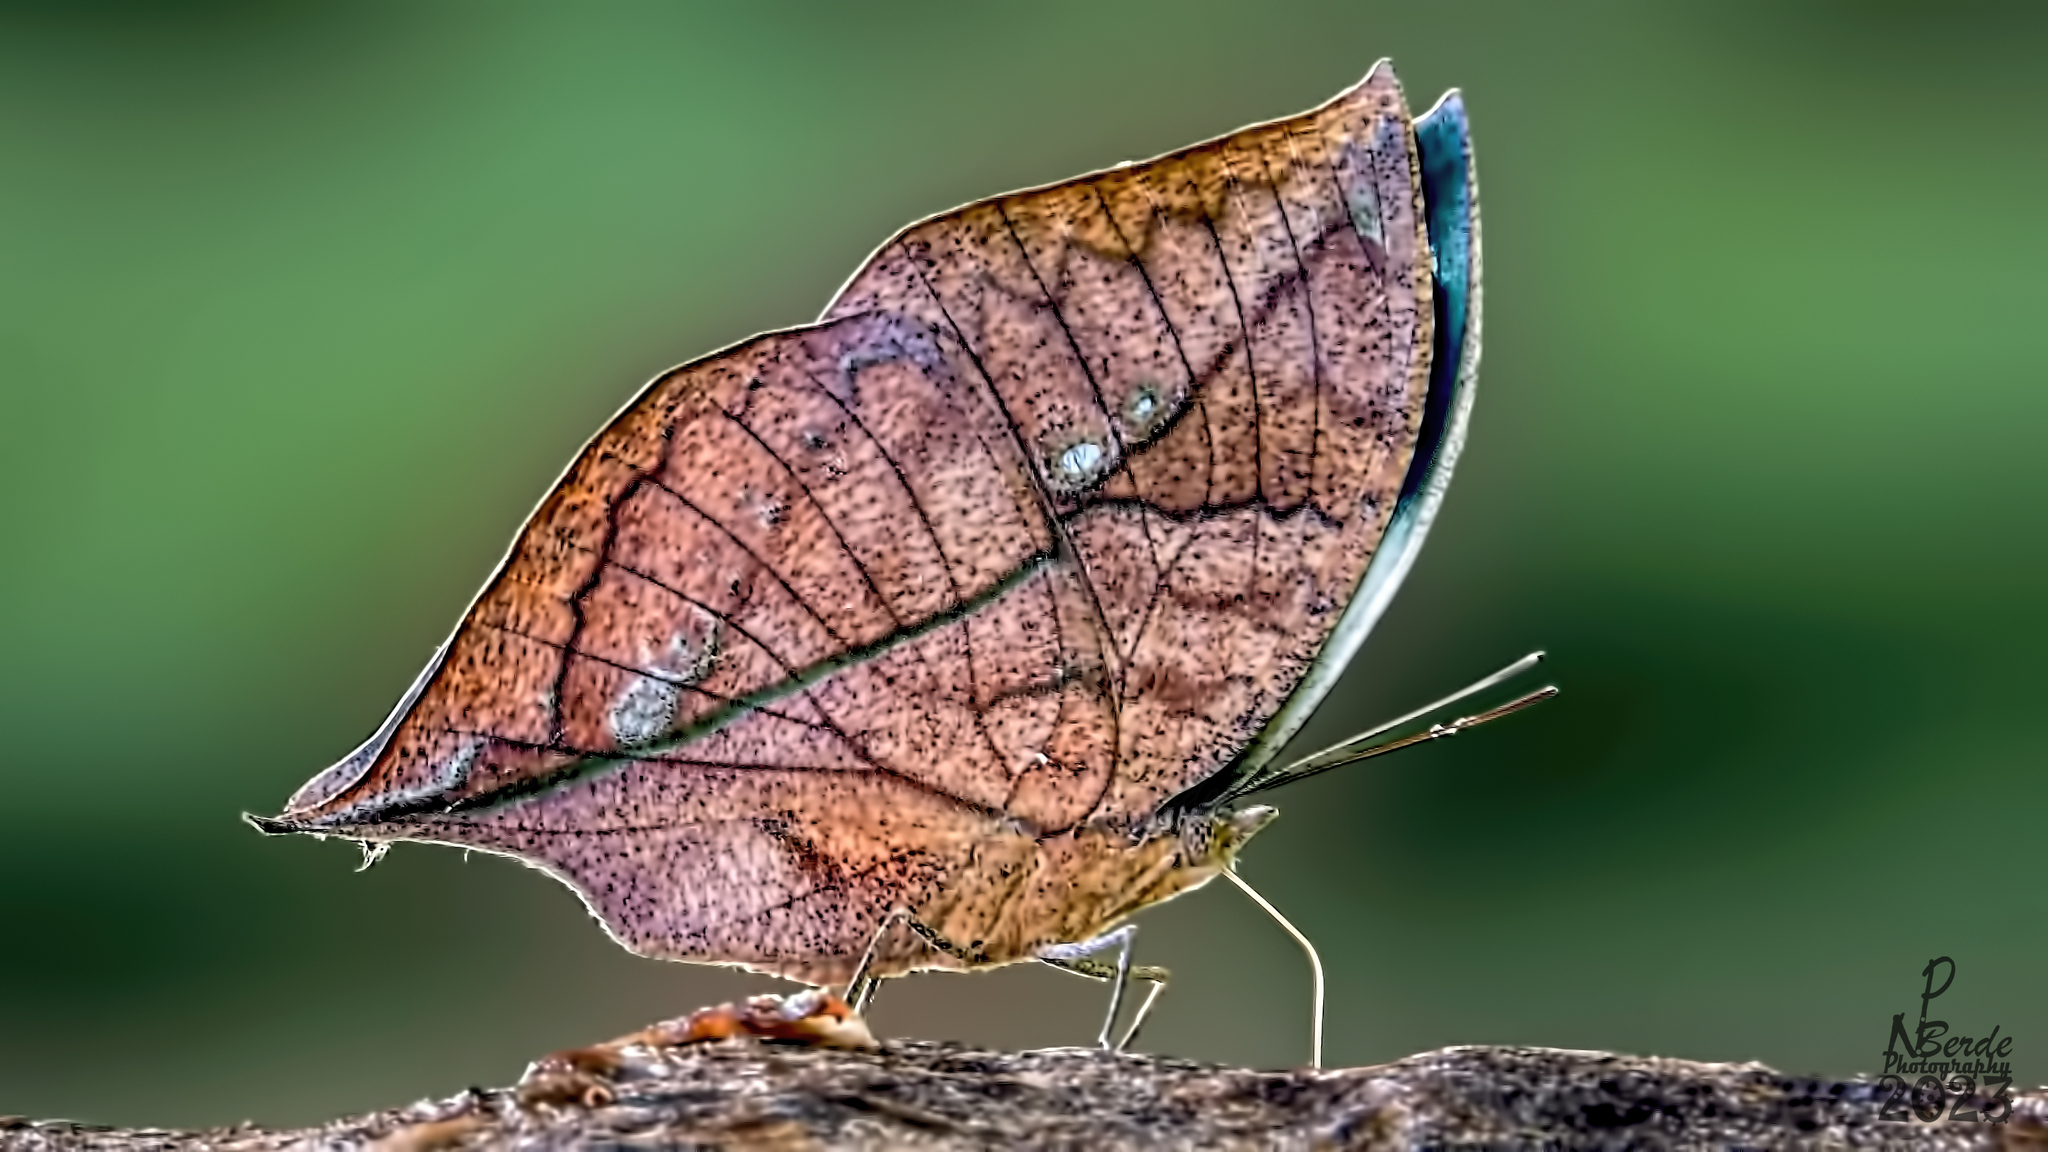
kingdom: Animalia
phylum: Arthropoda
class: Insecta
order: Lepidoptera
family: Nymphalidae
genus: Kallima
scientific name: Kallima horsfieldii
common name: Sahyadri blue oakleaf
